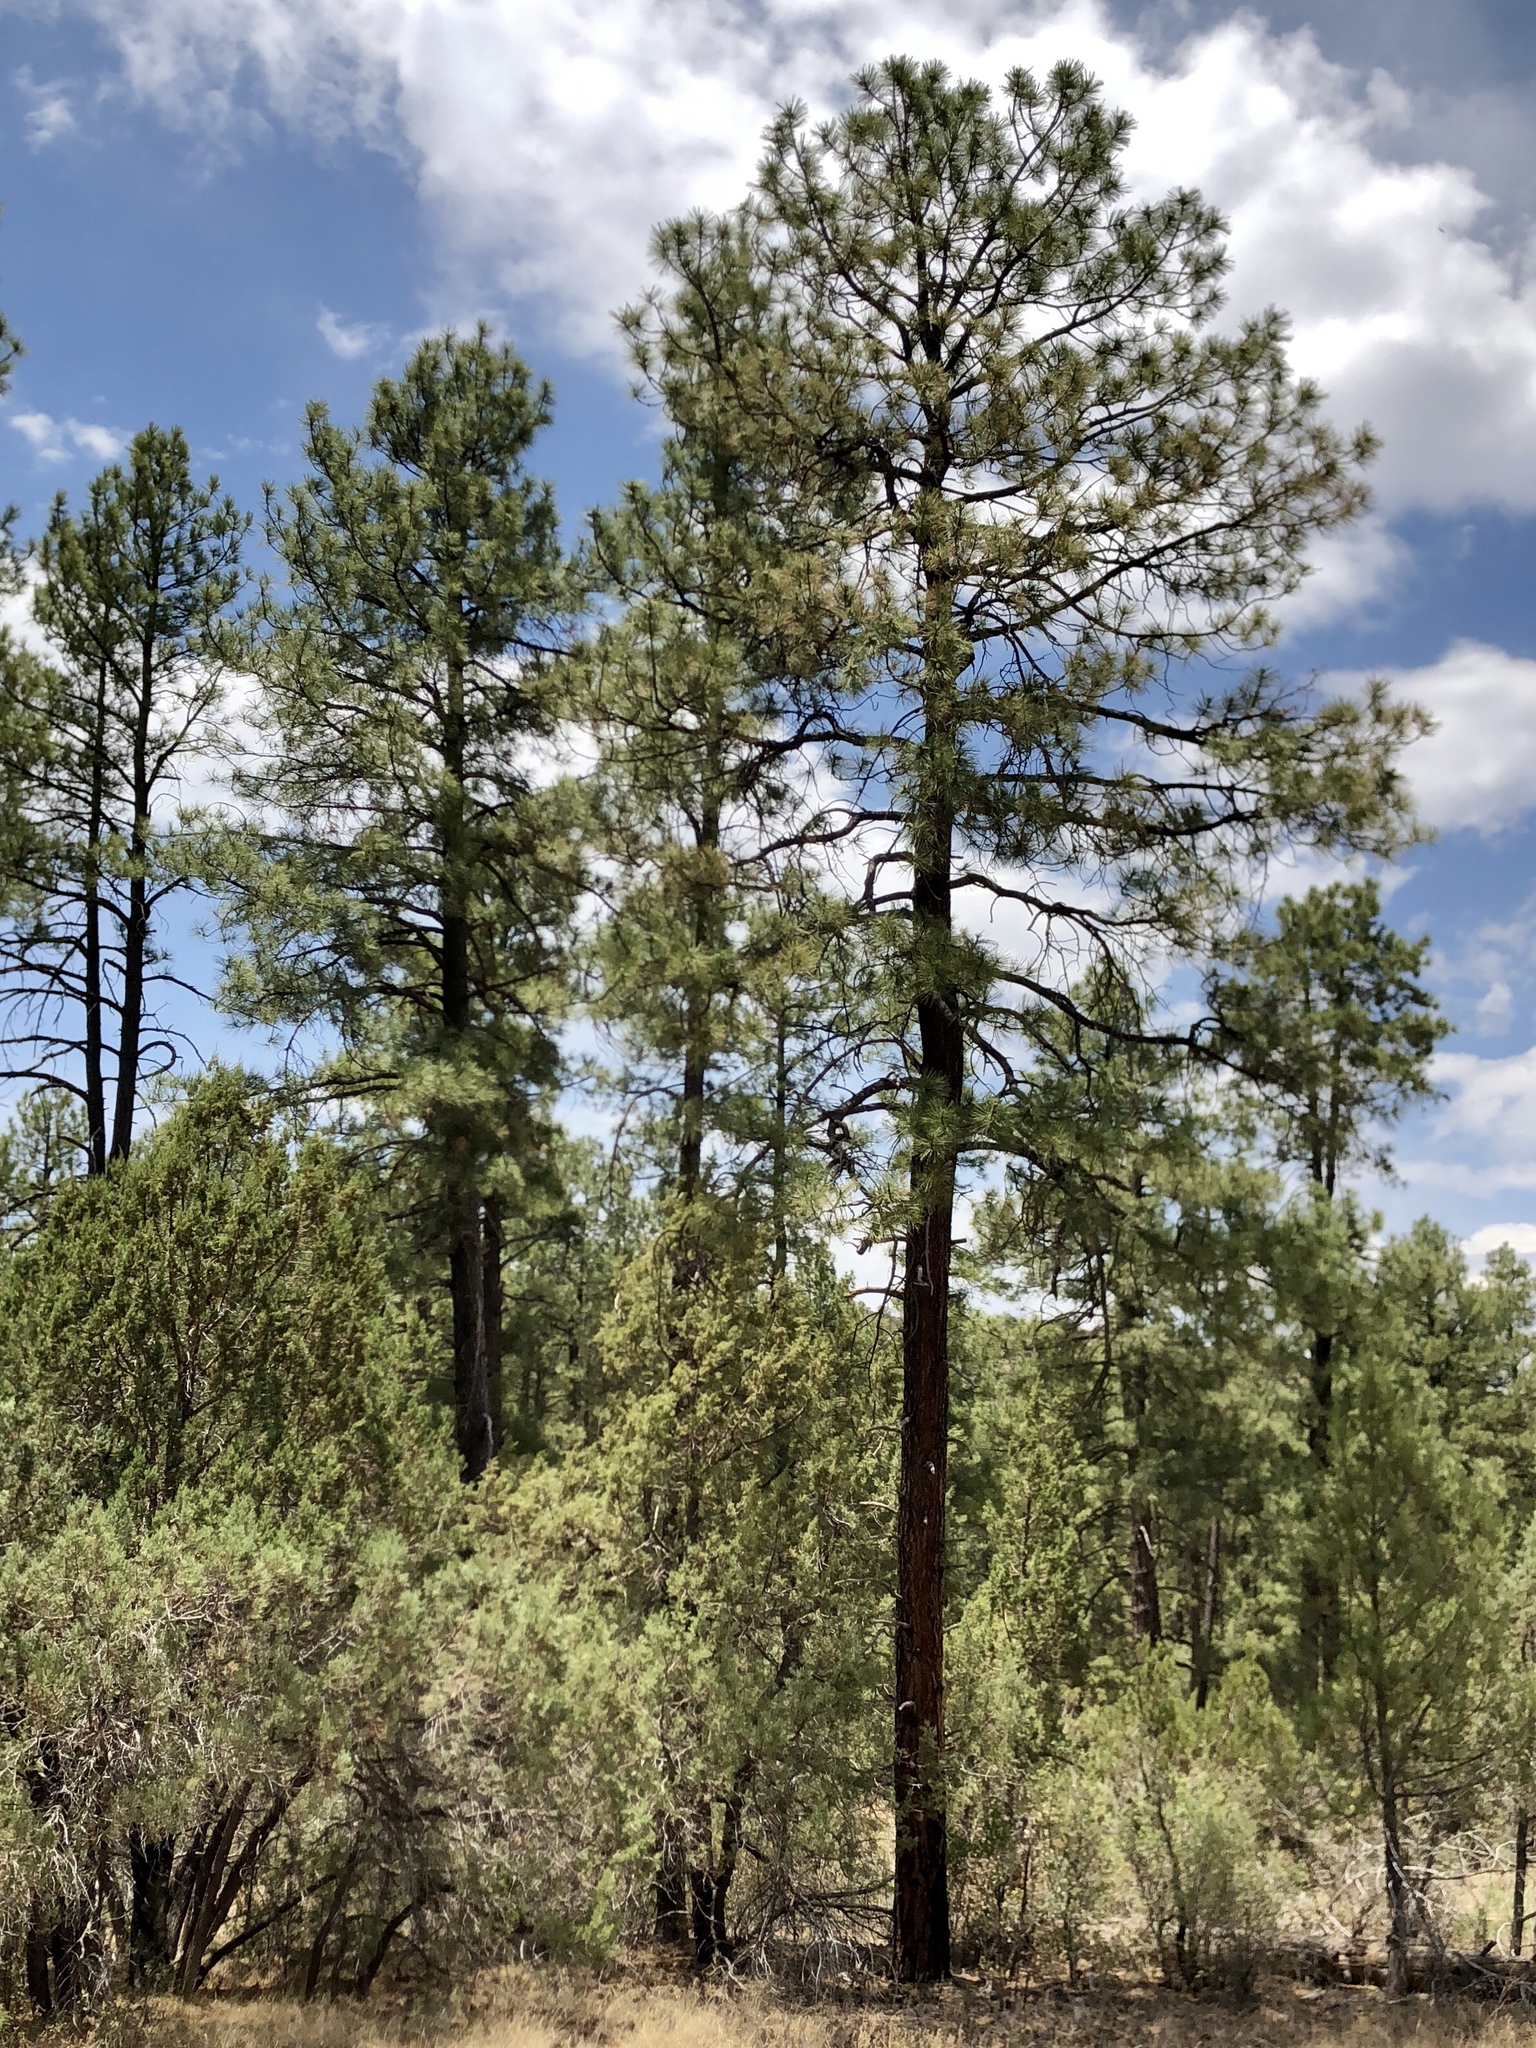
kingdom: Plantae
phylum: Tracheophyta
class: Pinopsida
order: Pinales
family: Pinaceae
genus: Pinus
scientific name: Pinus ponderosa
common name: Western yellow-pine
